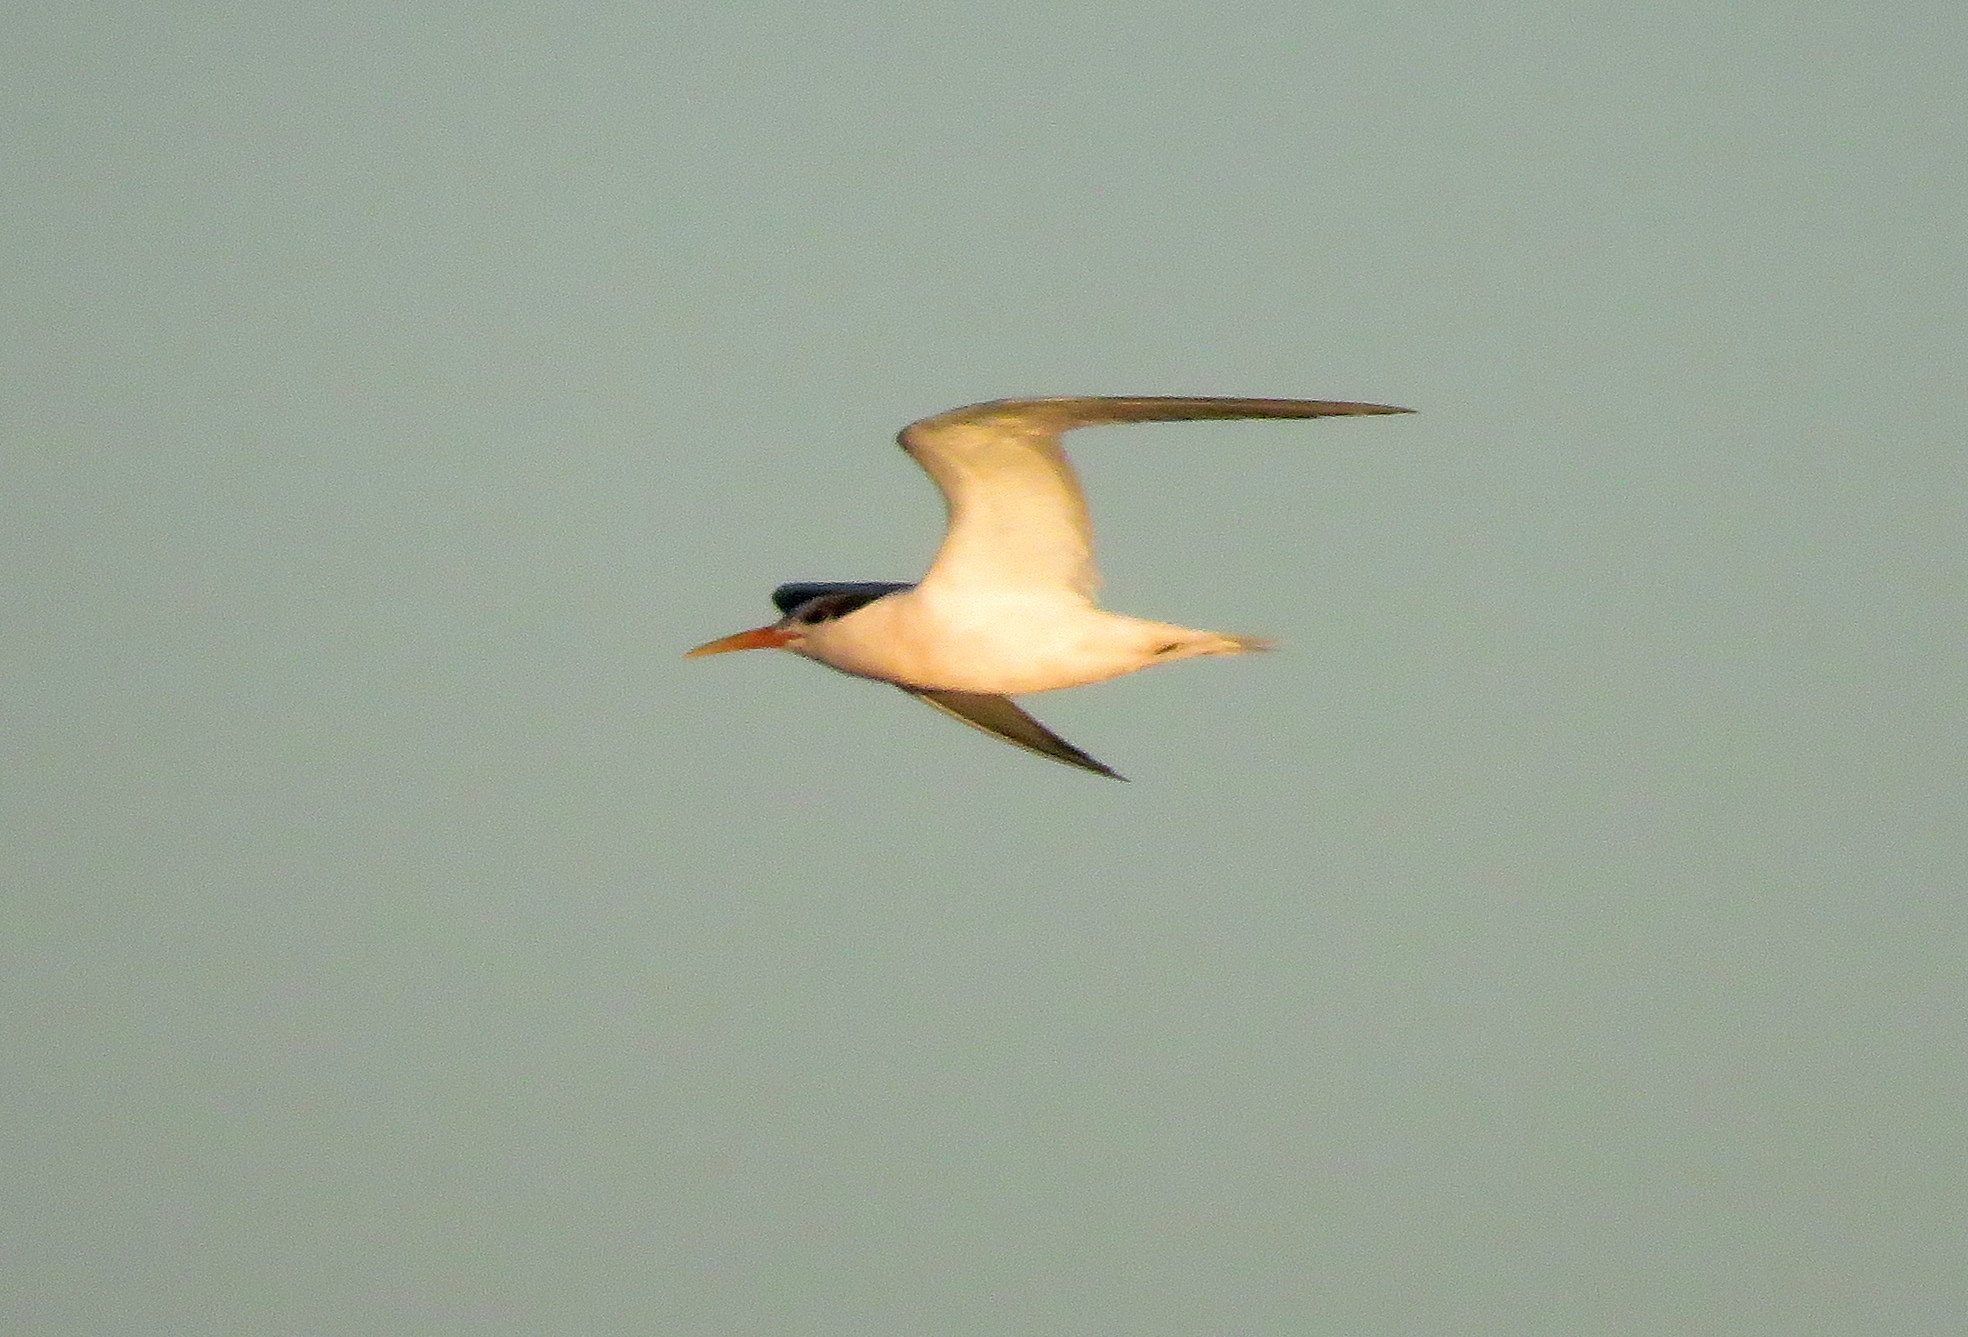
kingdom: Animalia
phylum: Chordata
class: Aves
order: Charadriiformes
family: Laridae
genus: Thalasseus
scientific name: Thalasseus acuflavidus
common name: Cabot's tern
